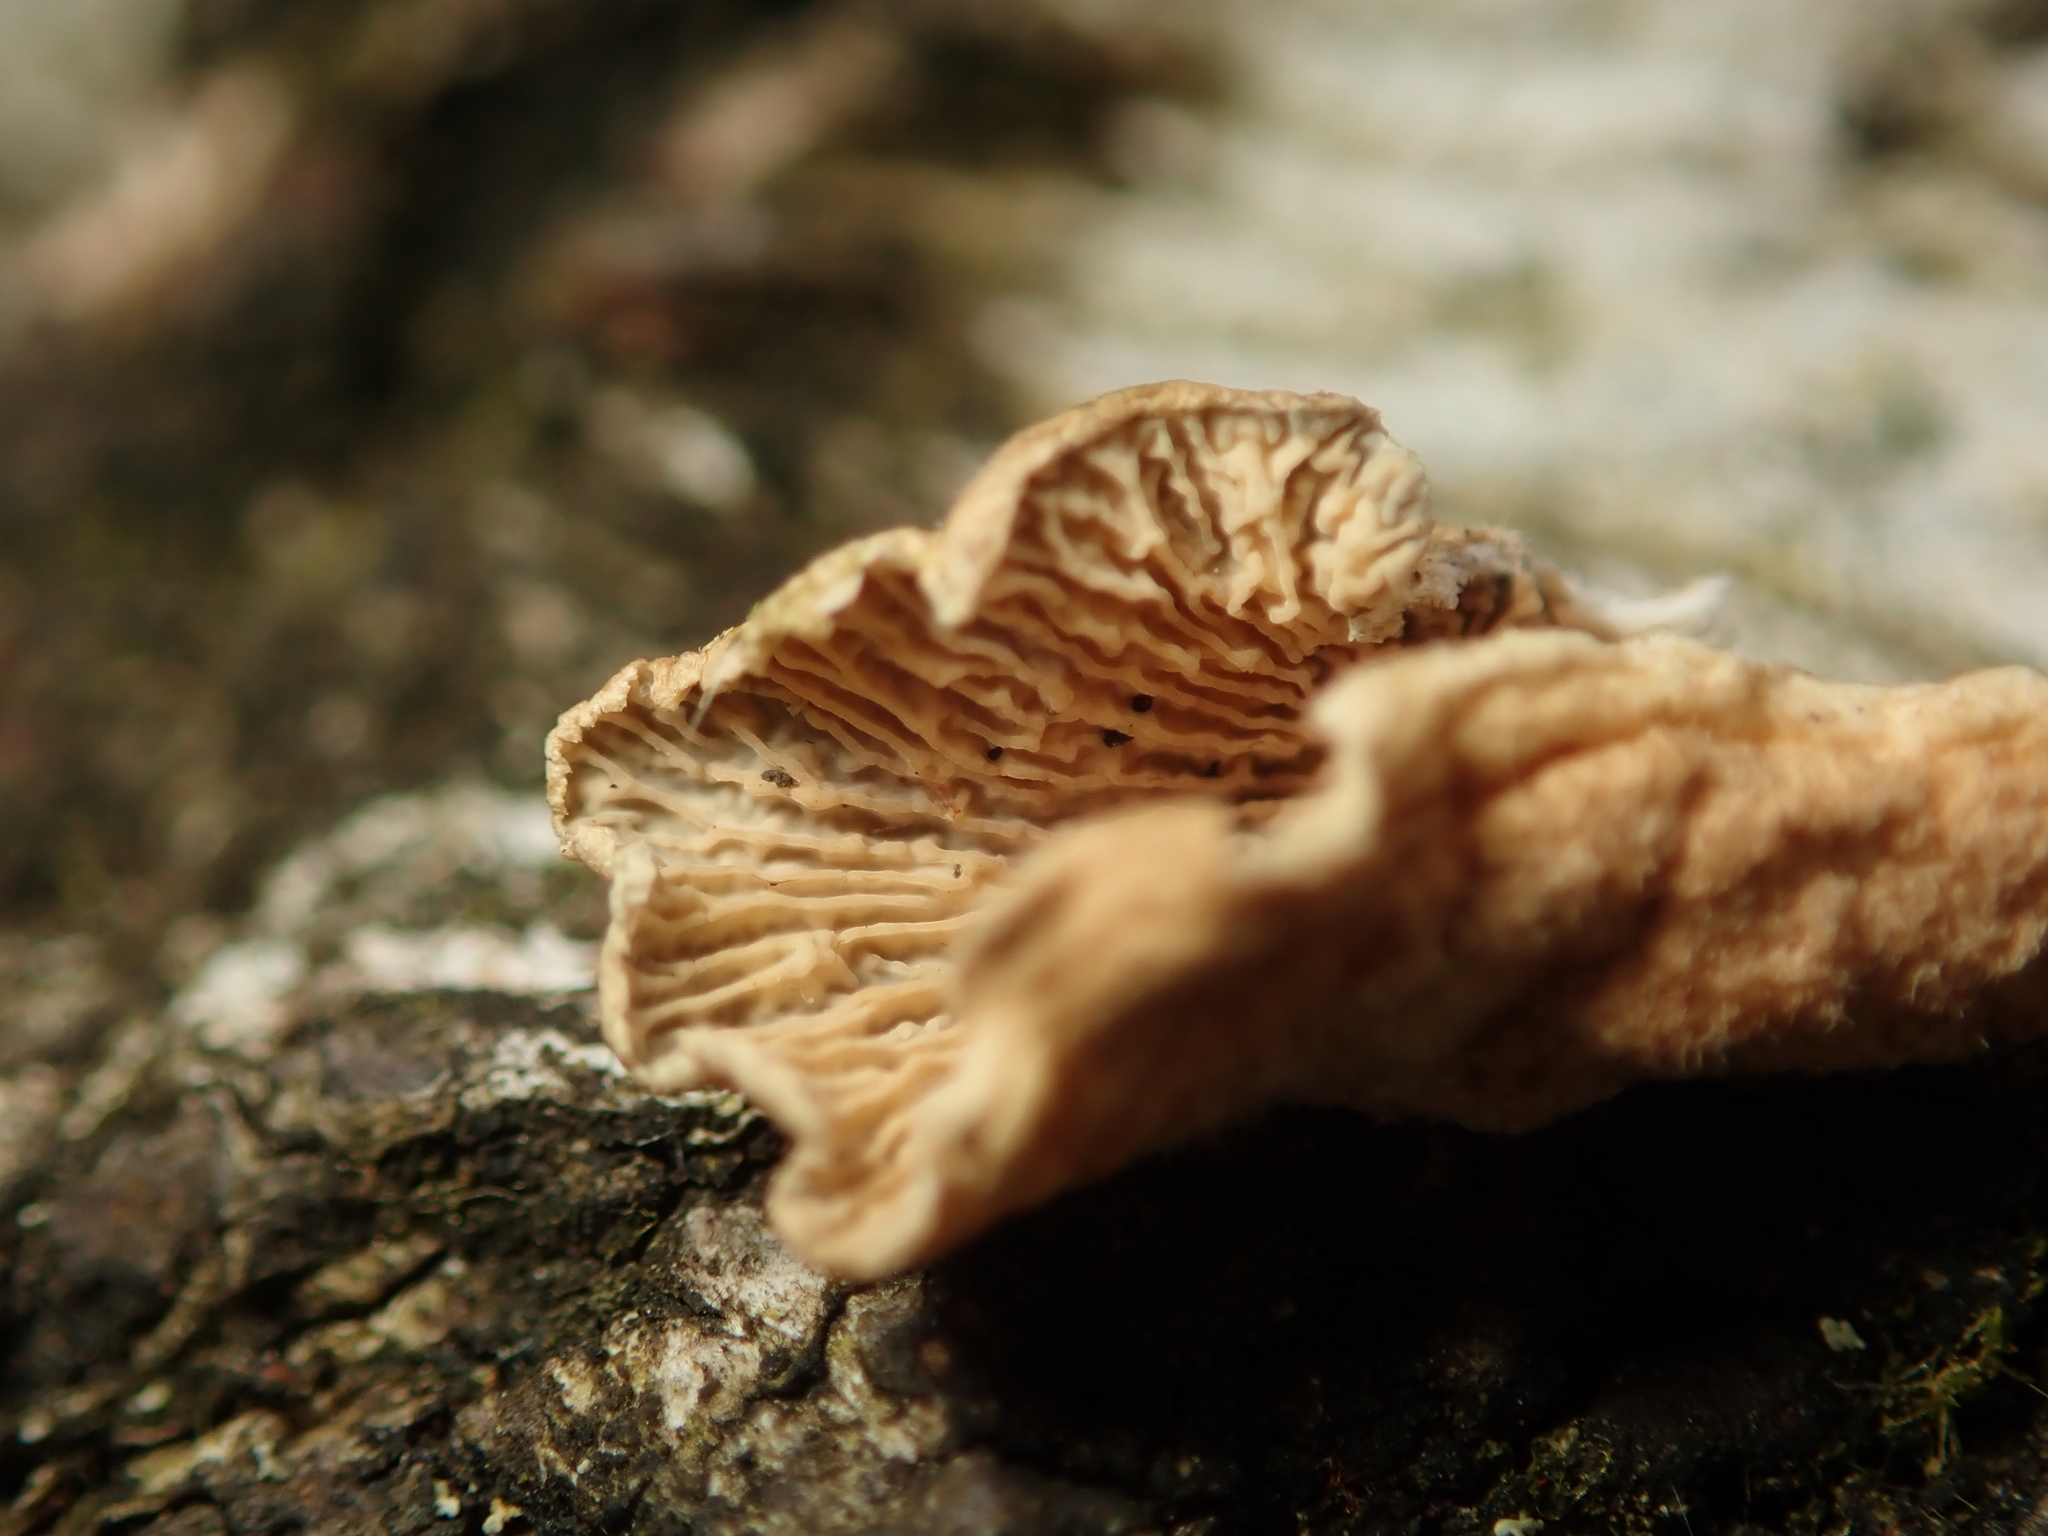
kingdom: Fungi
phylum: Basidiomycota
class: Agaricomycetes
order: Agaricales
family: Schizophyllaceae
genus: Schizophyllum
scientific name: Schizophyllum commune
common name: Common porecrust
